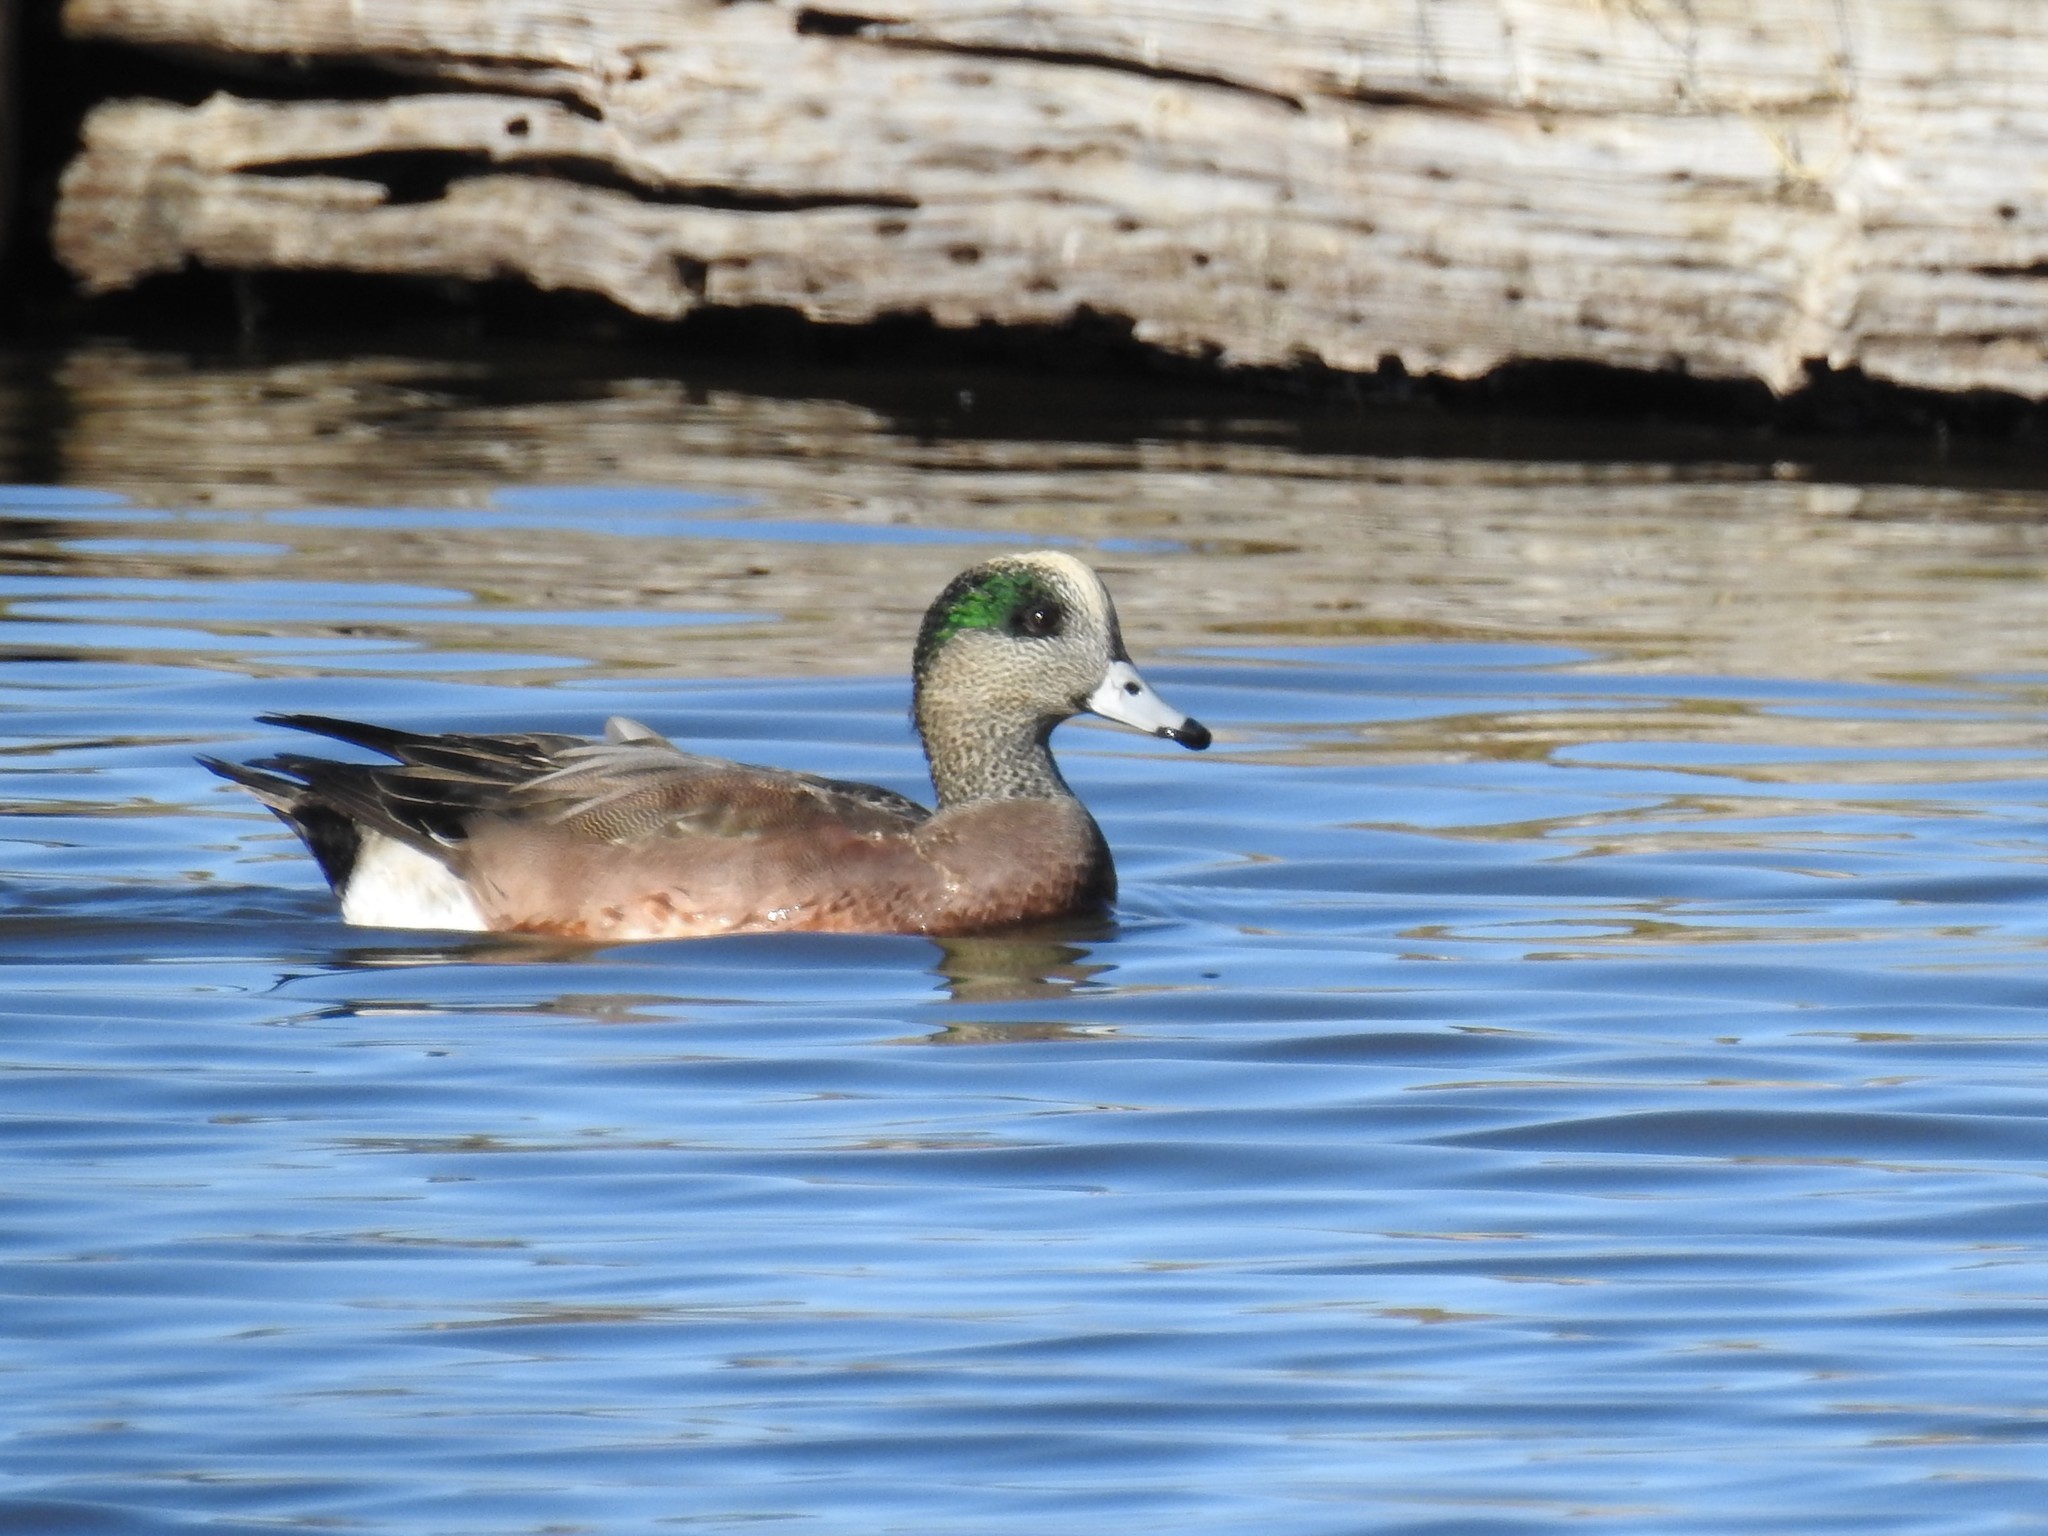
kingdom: Animalia
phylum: Chordata
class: Aves
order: Anseriformes
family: Anatidae
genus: Mareca
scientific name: Mareca americana
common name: American wigeon
